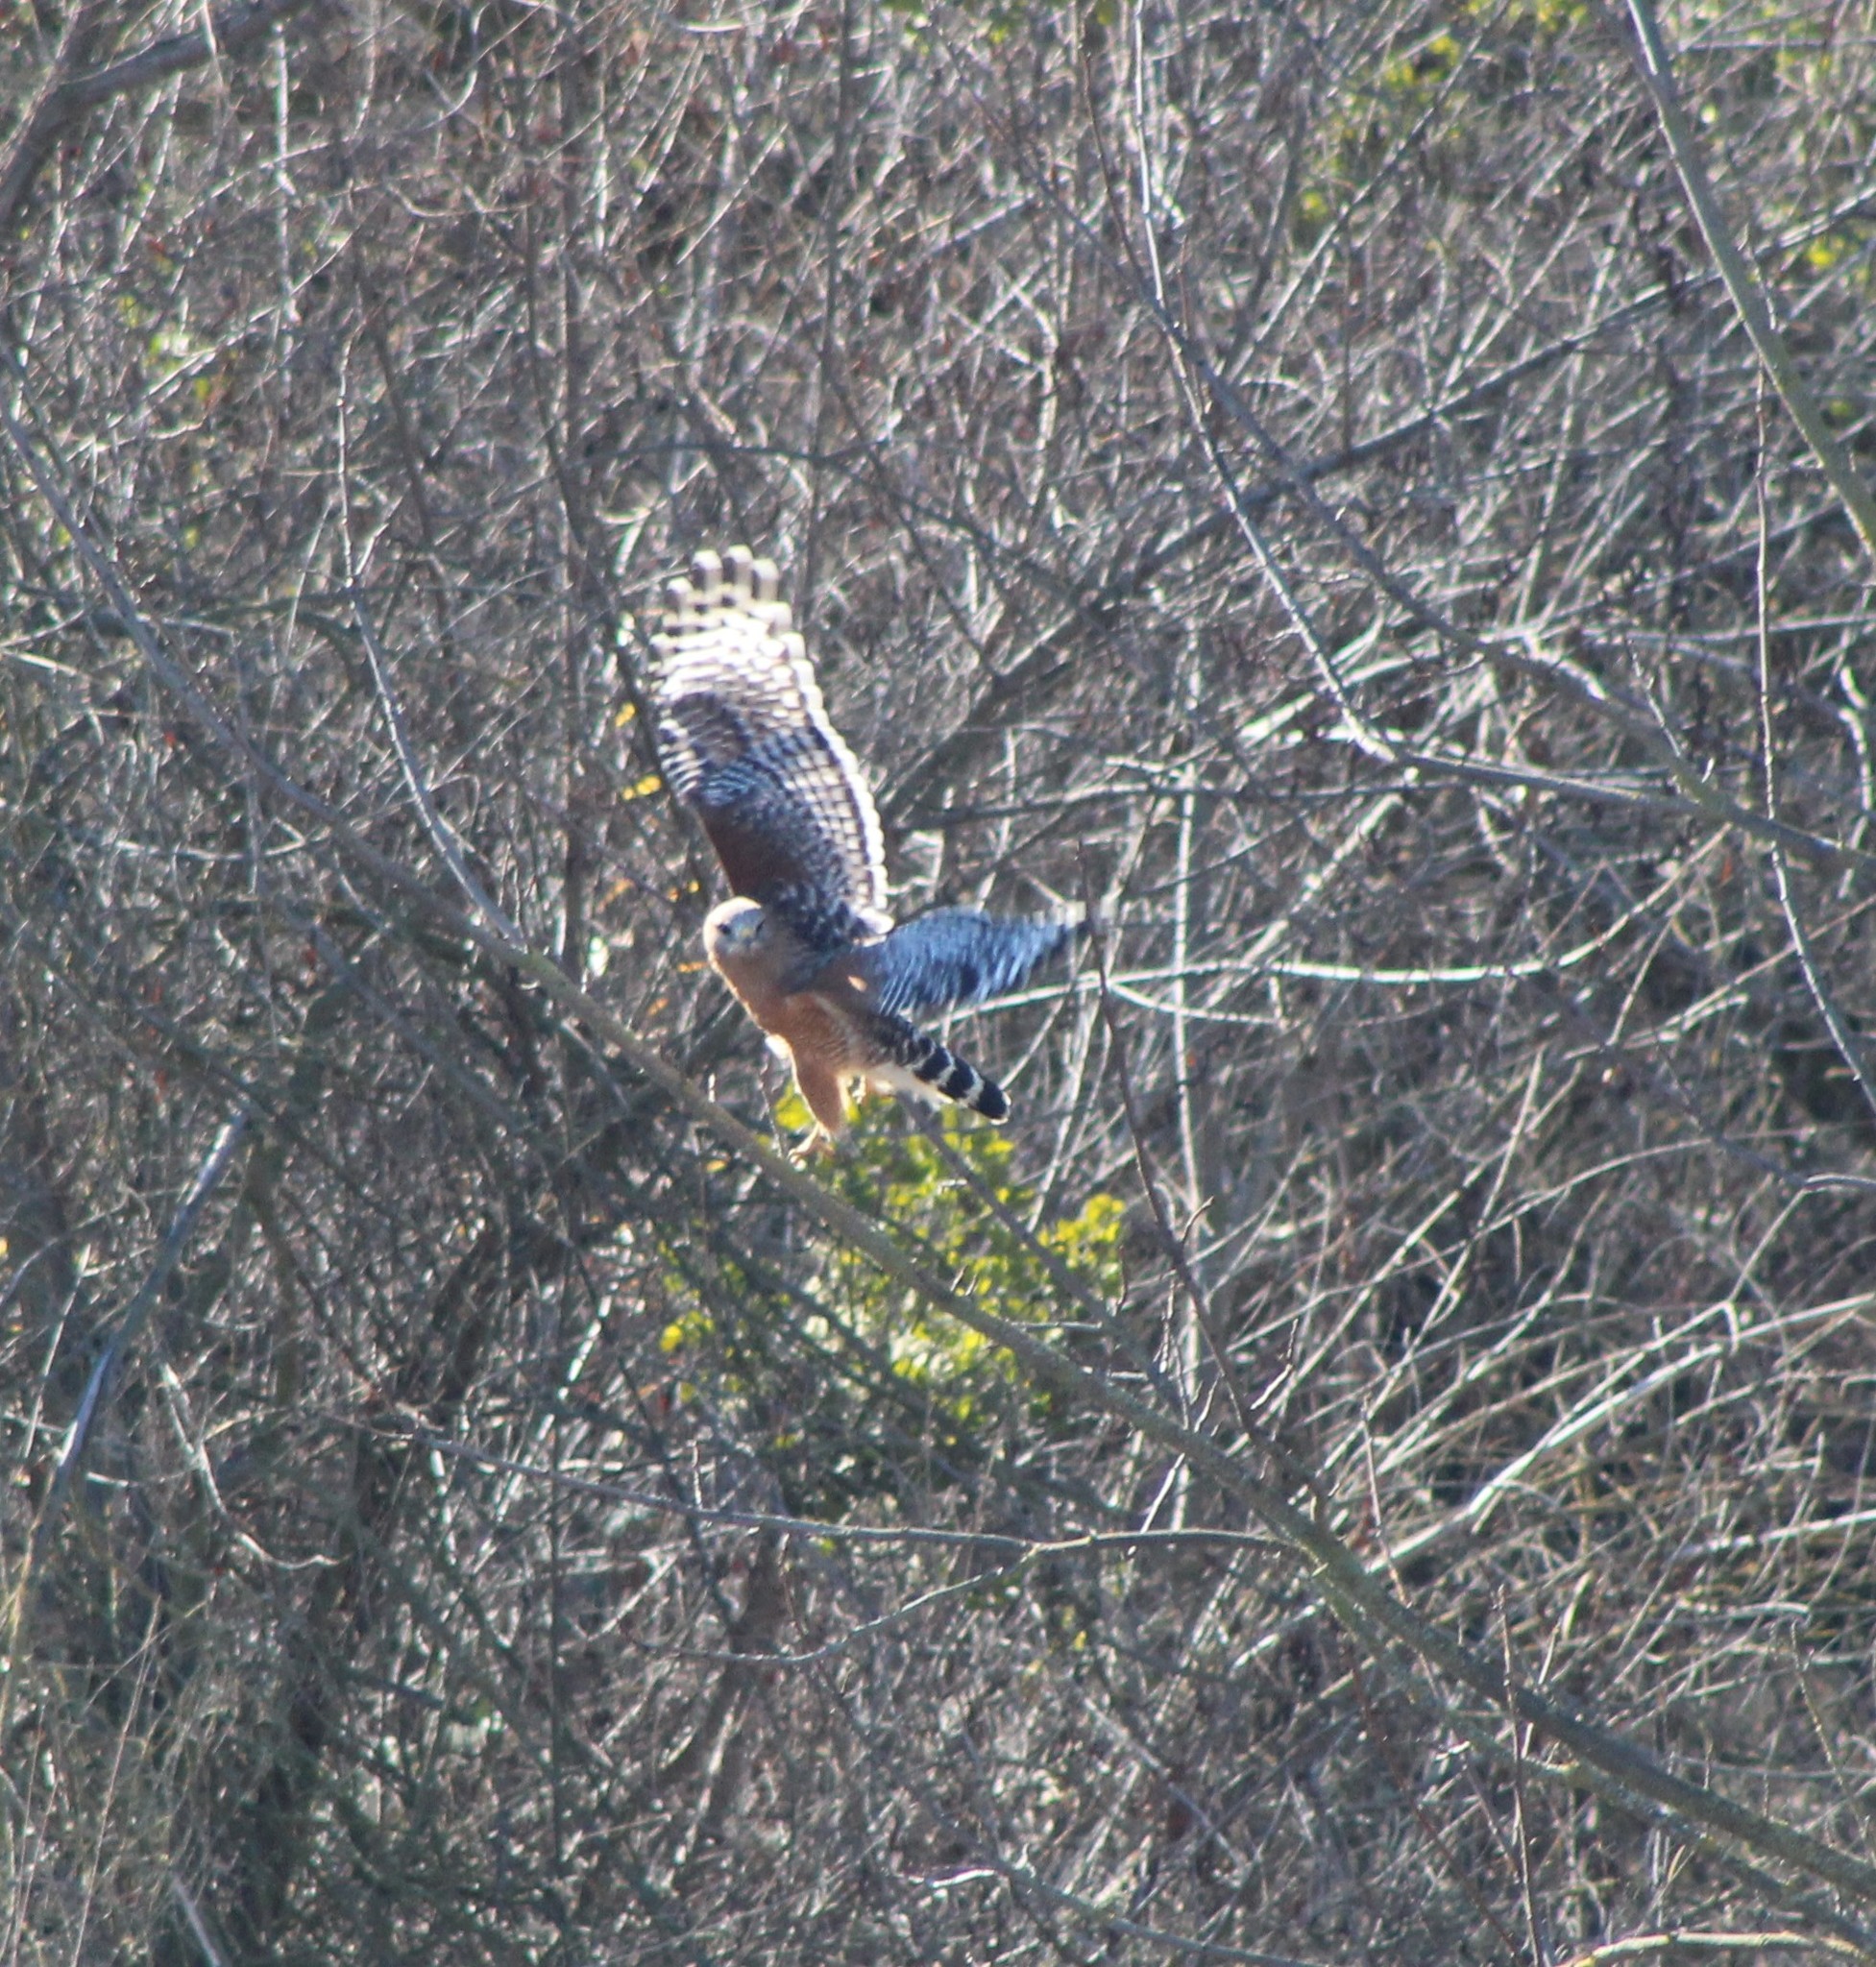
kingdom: Animalia
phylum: Chordata
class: Aves
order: Accipitriformes
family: Accipitridae
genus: Buteo
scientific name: Buteo lineatus
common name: Red-shouldered hawk
